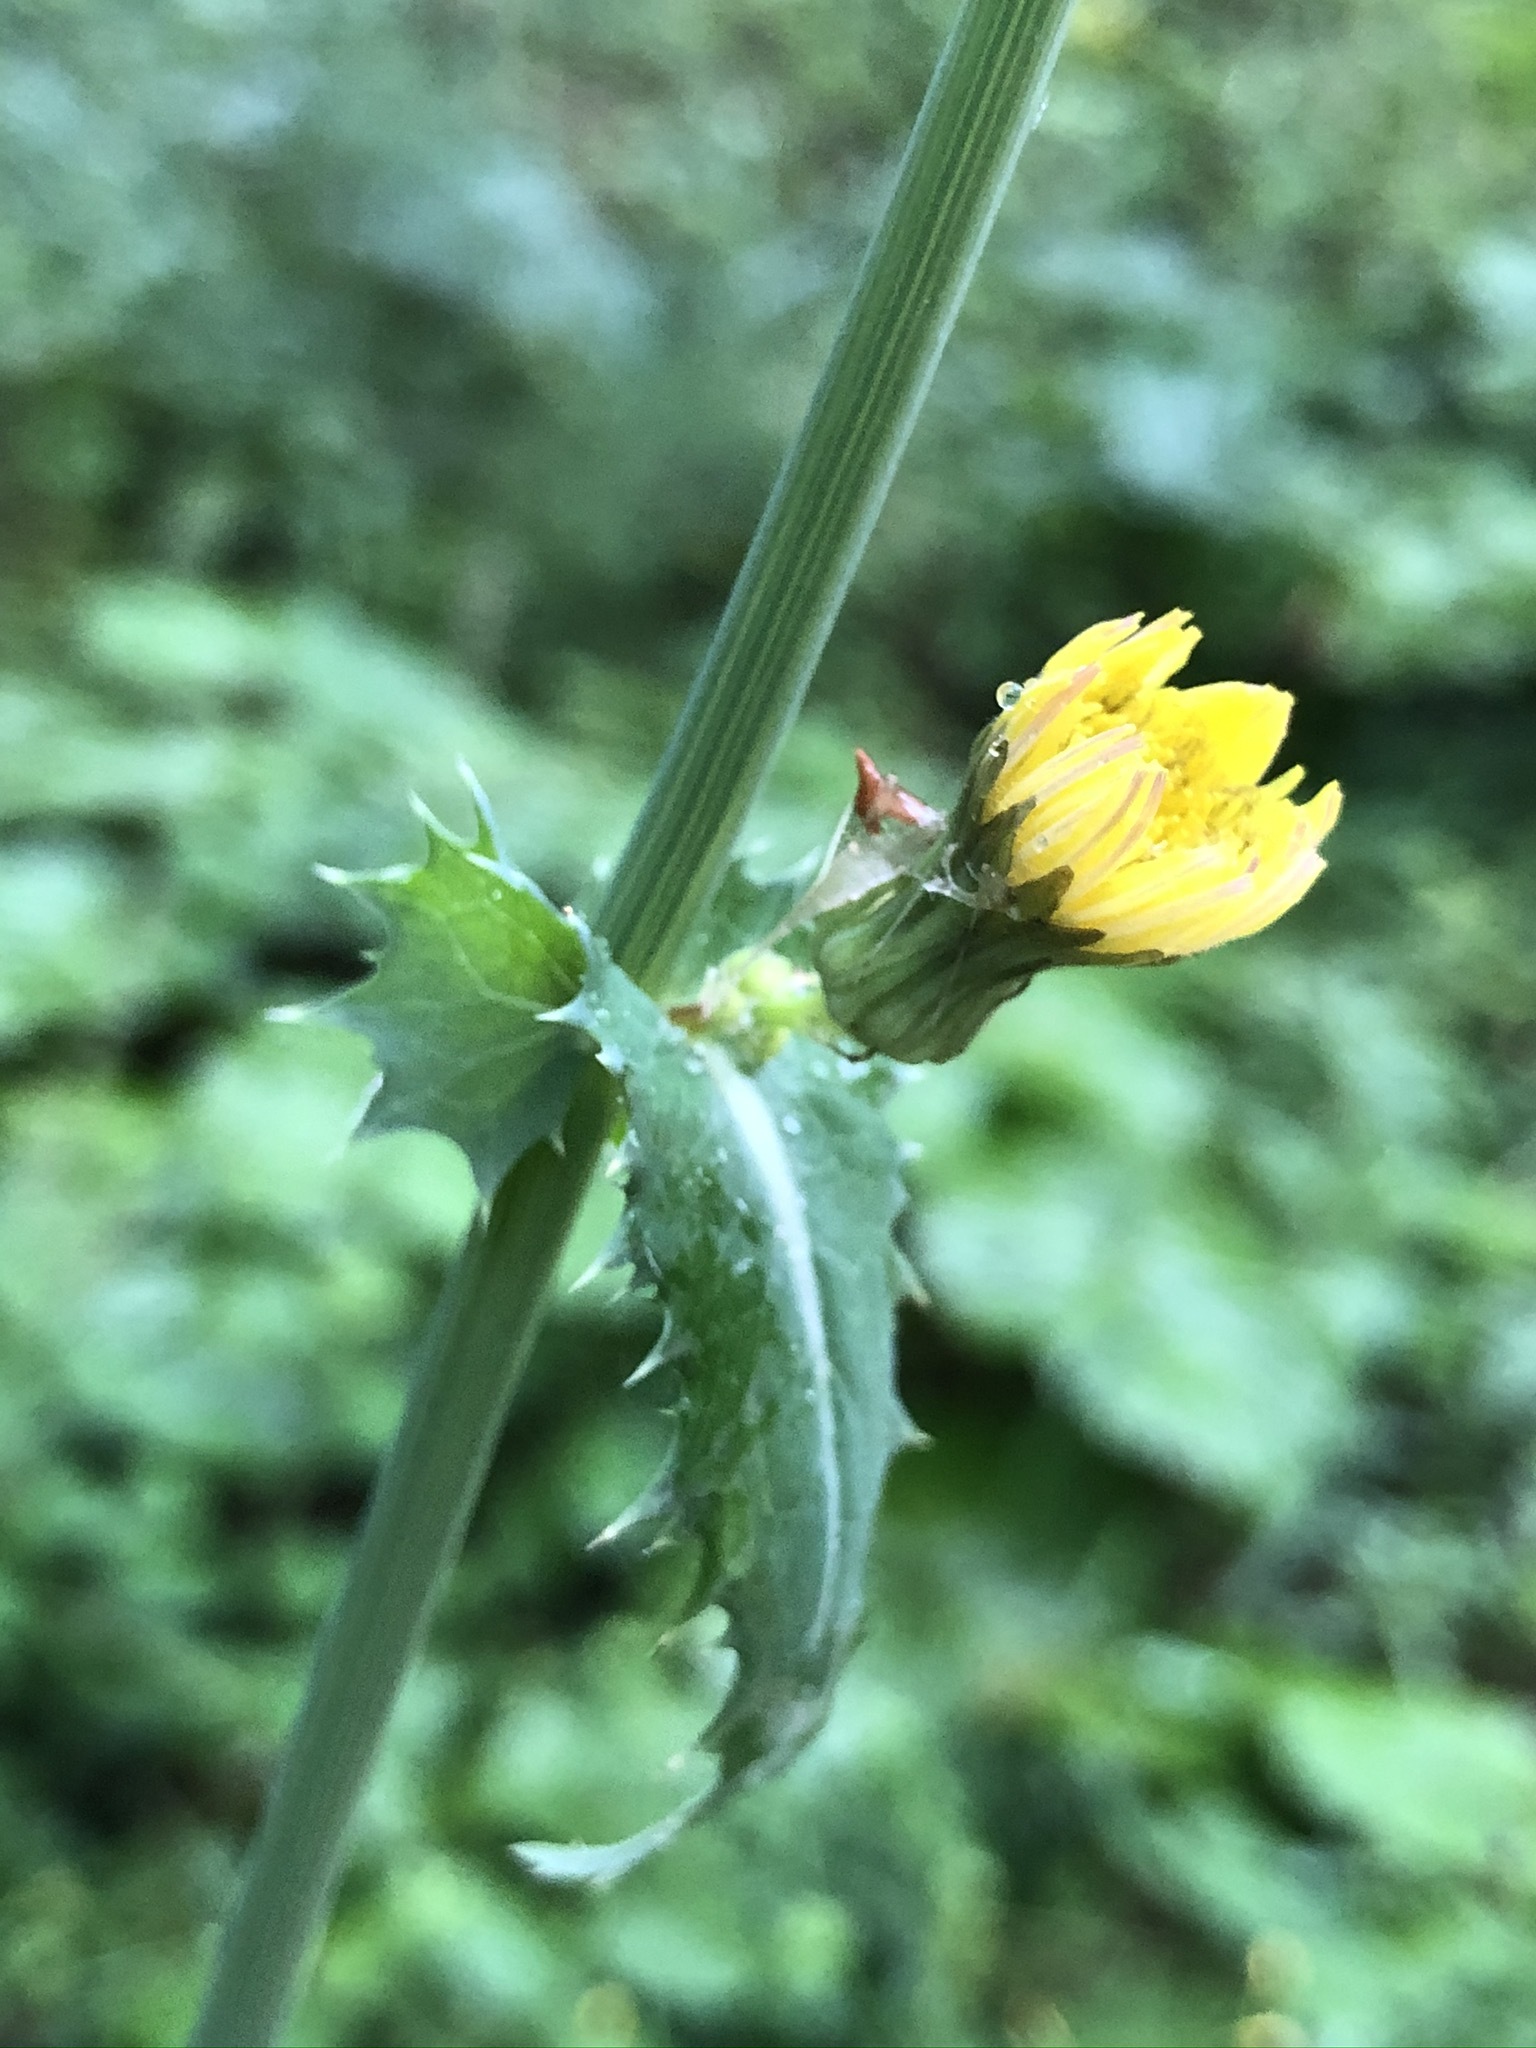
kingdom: Plantae
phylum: Tracheophyta
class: Magnoliopsida
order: Asterales
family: Asteraceae
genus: Sonchus
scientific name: Sonchus asper
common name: Prickly sow-thistle
